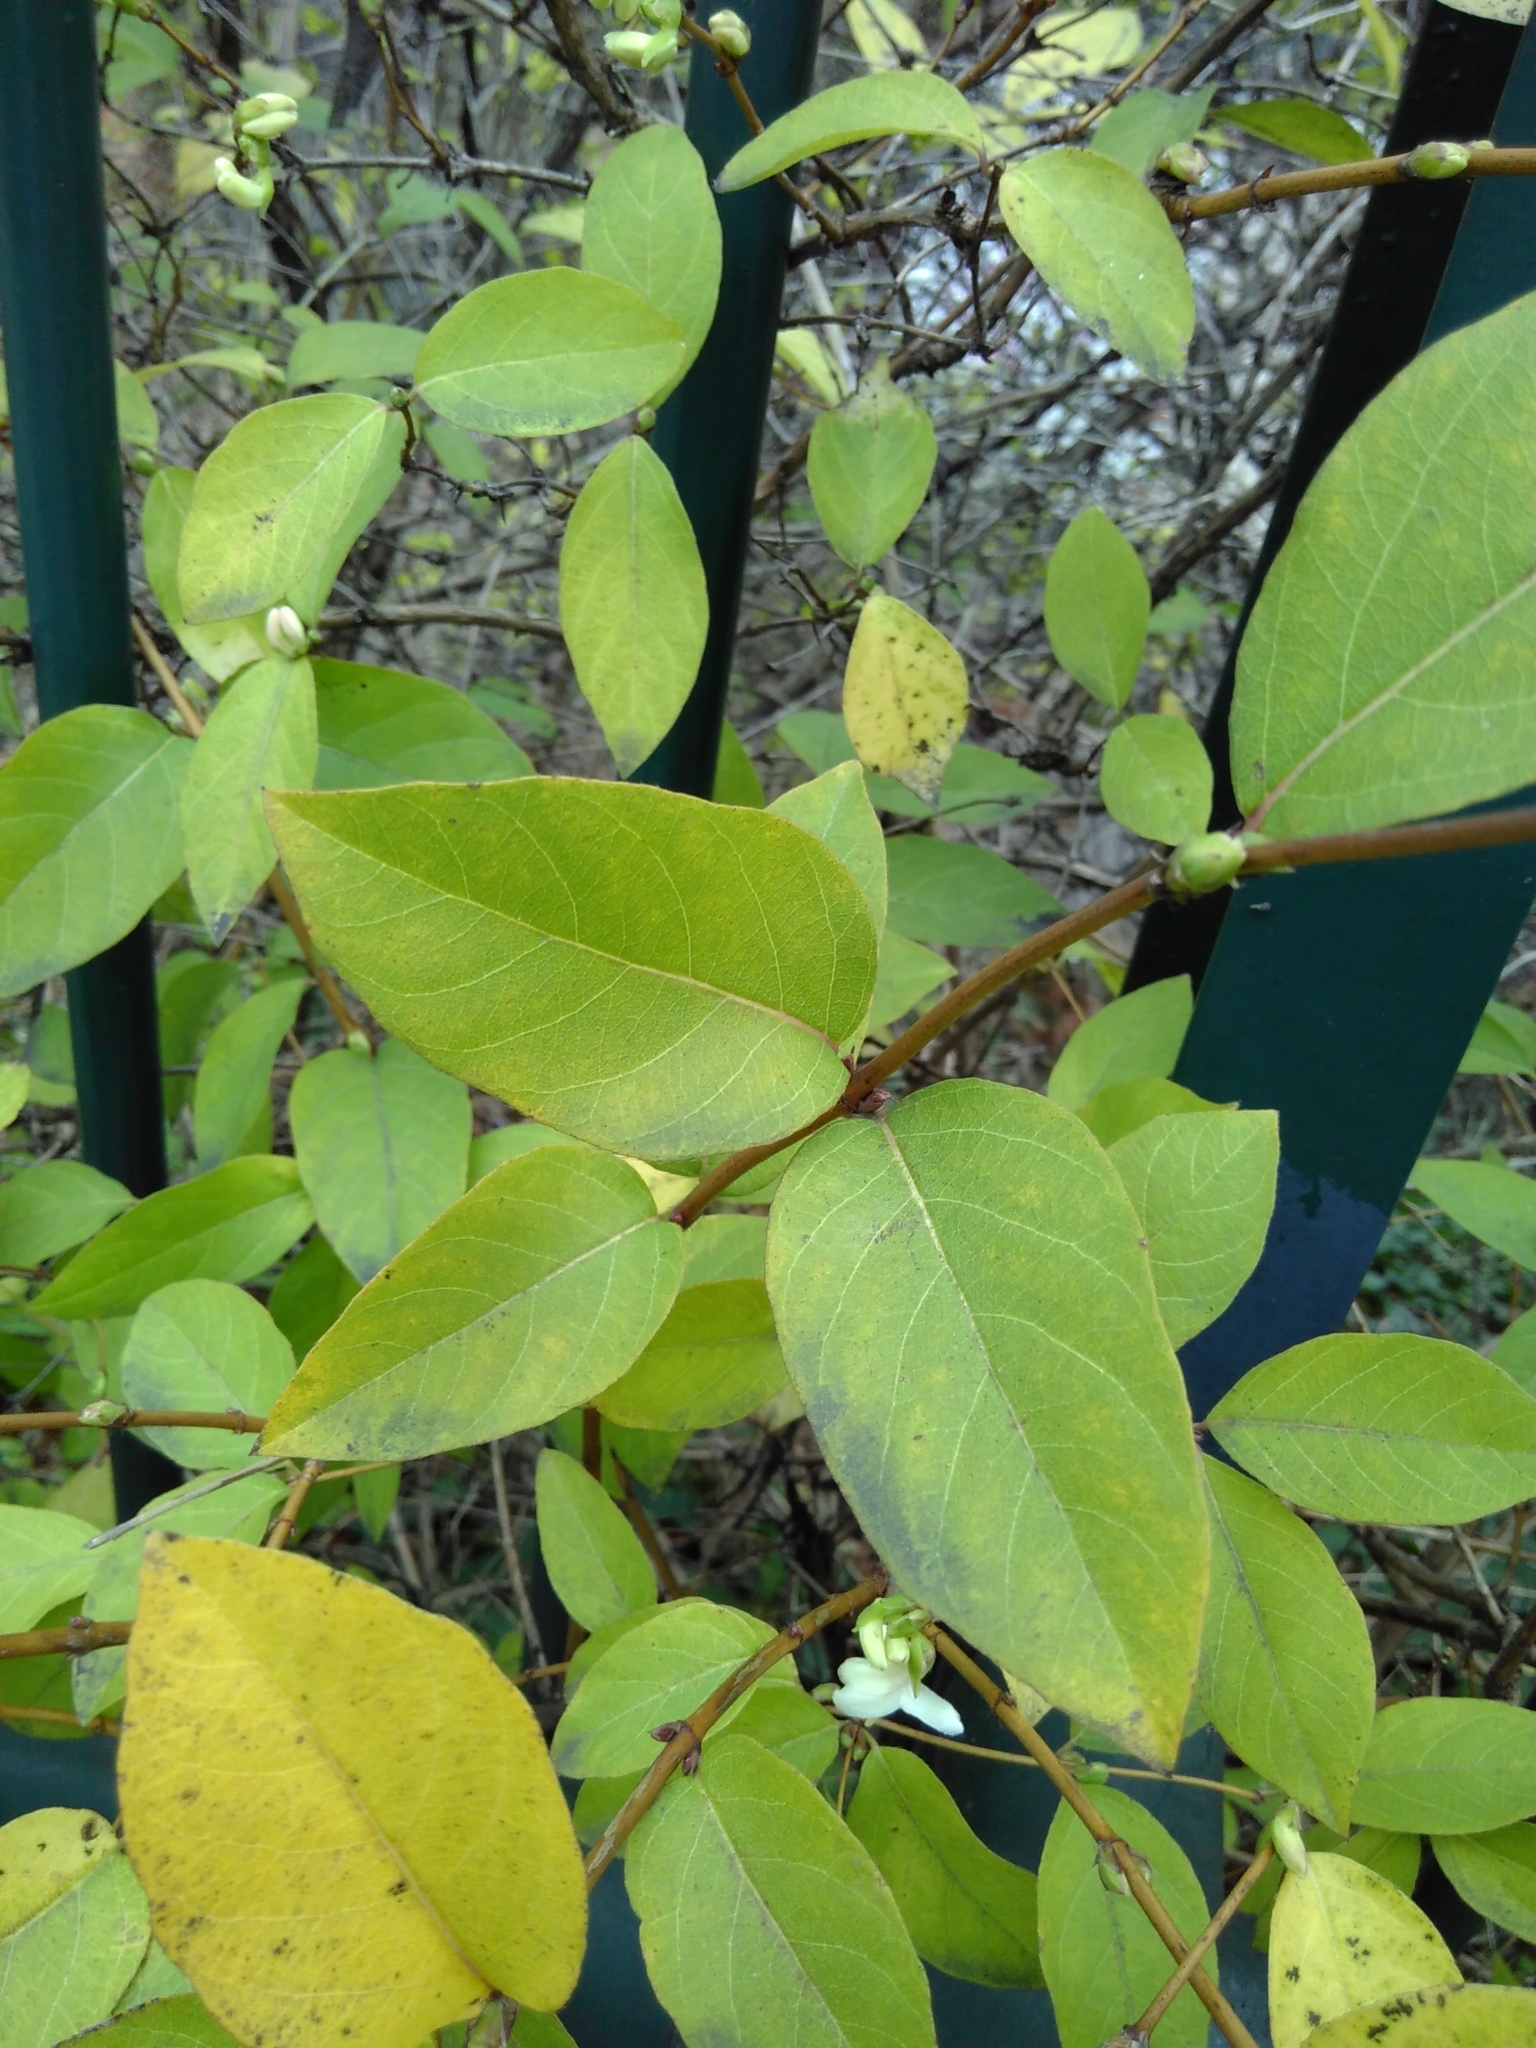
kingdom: Plantae
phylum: Tracheophyta
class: Magnoliopsida
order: Dipsacales
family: Caprifoliaceae
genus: Lonicera
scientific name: Lonicera fragrantissima
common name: Fragrant honeysuckle
